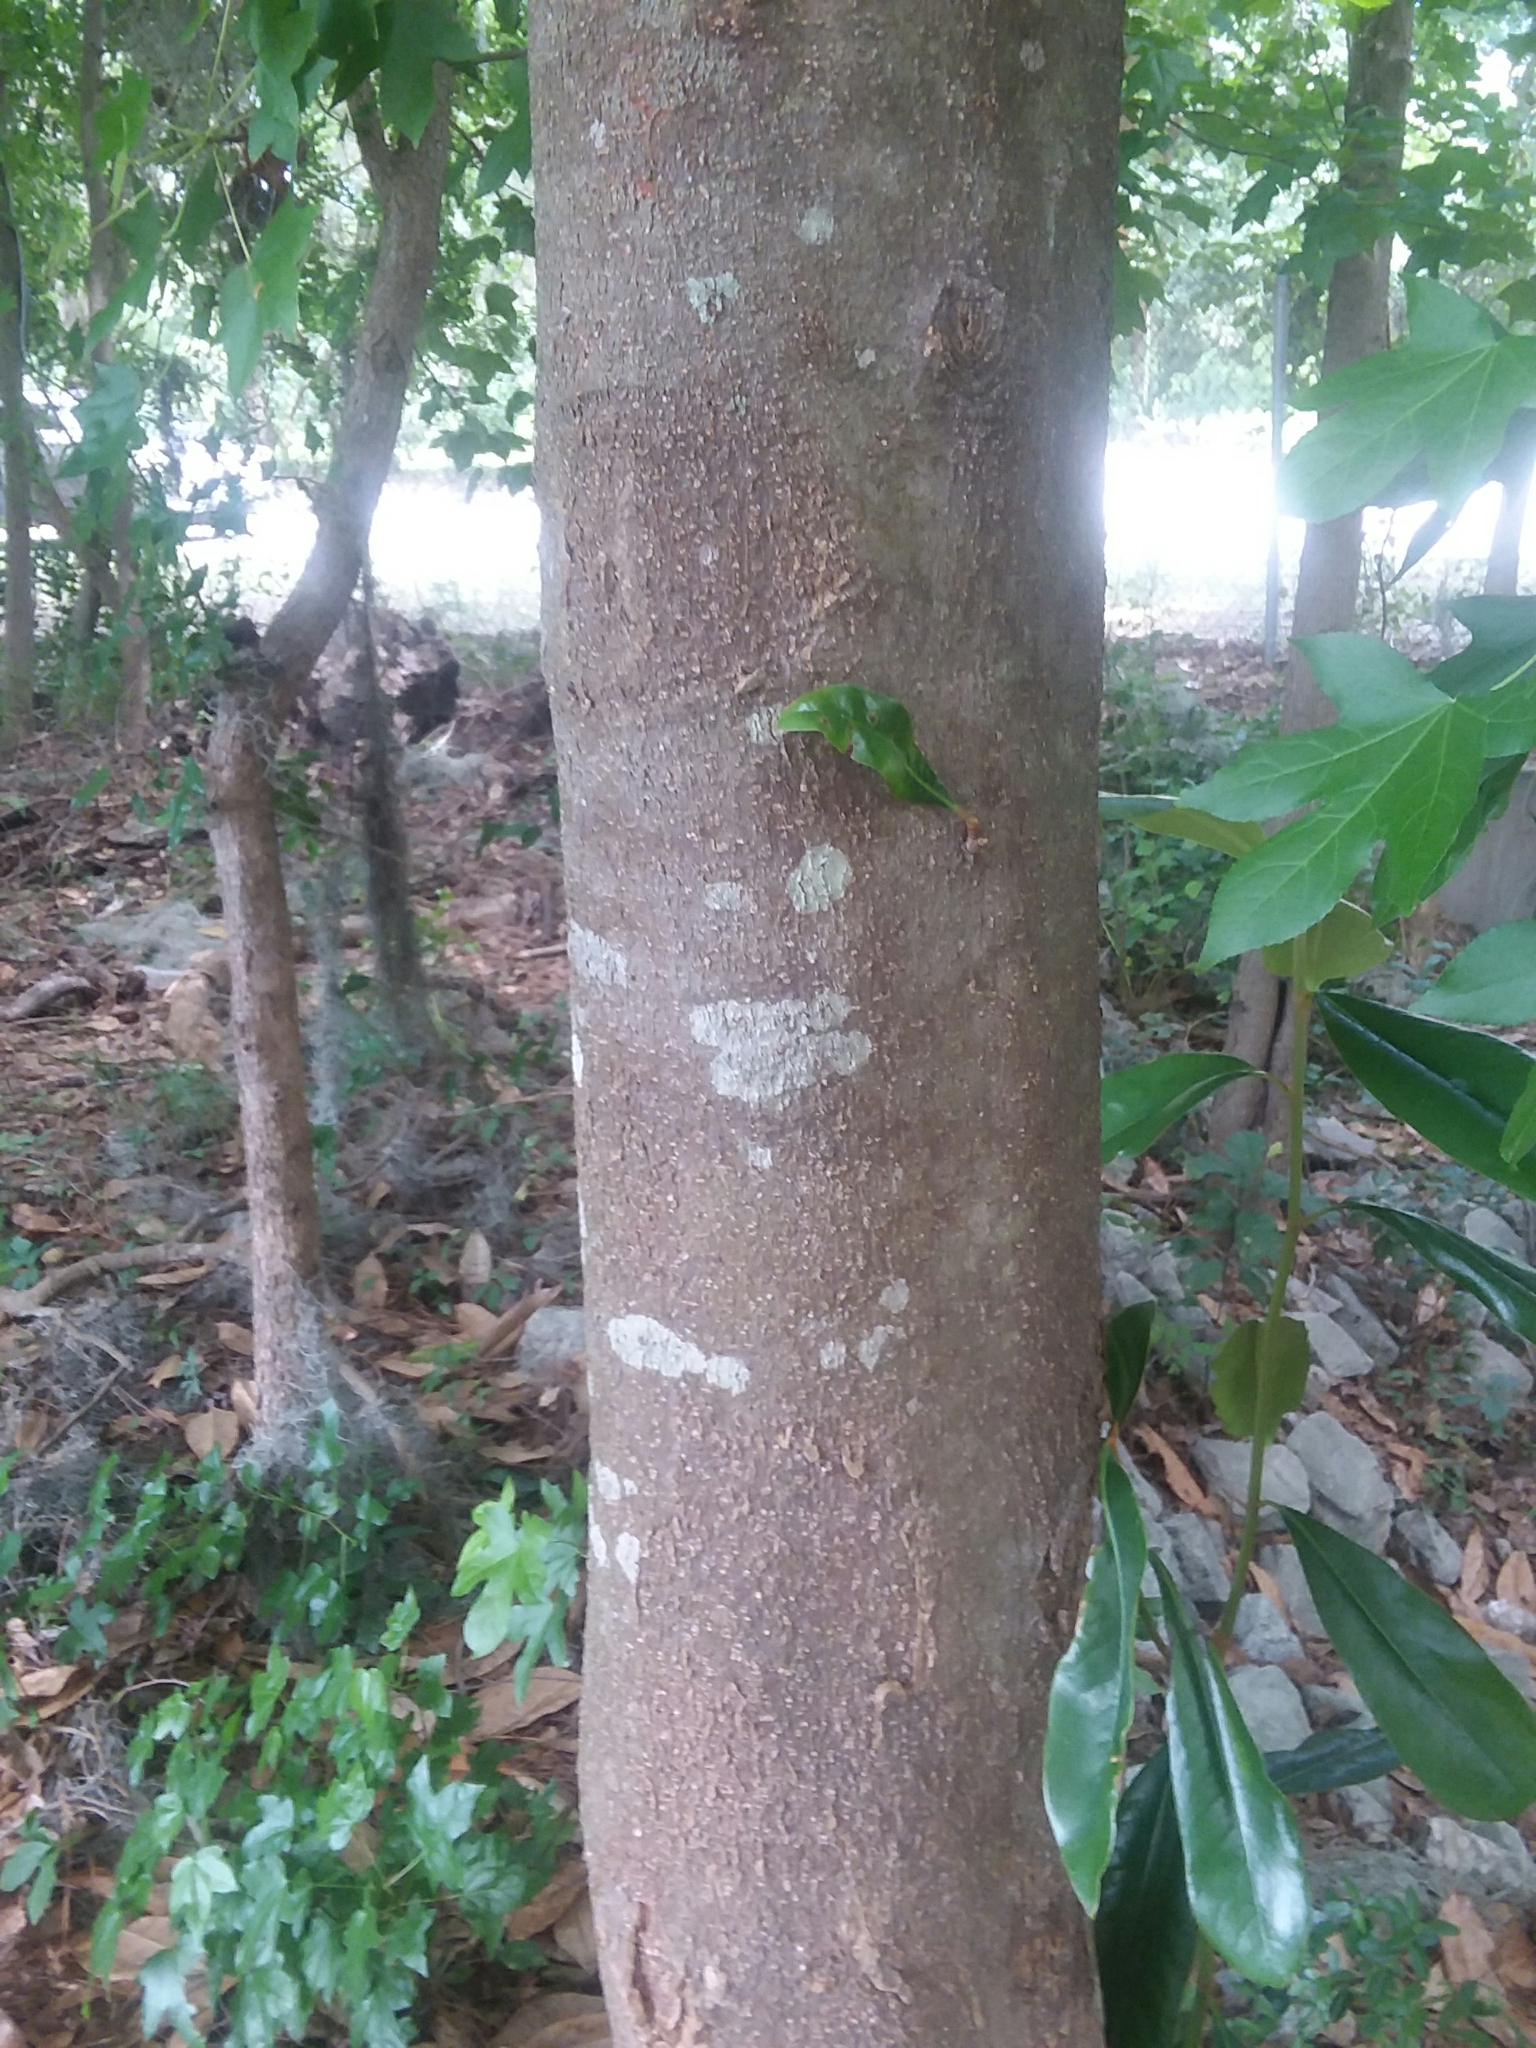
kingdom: Plantae
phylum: Tracheophyta
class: Magnoliopsida
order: Magnoliales
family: Magnoliaceae
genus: Magnolia
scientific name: Magnolia grandiflora
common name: Southern magnolia
